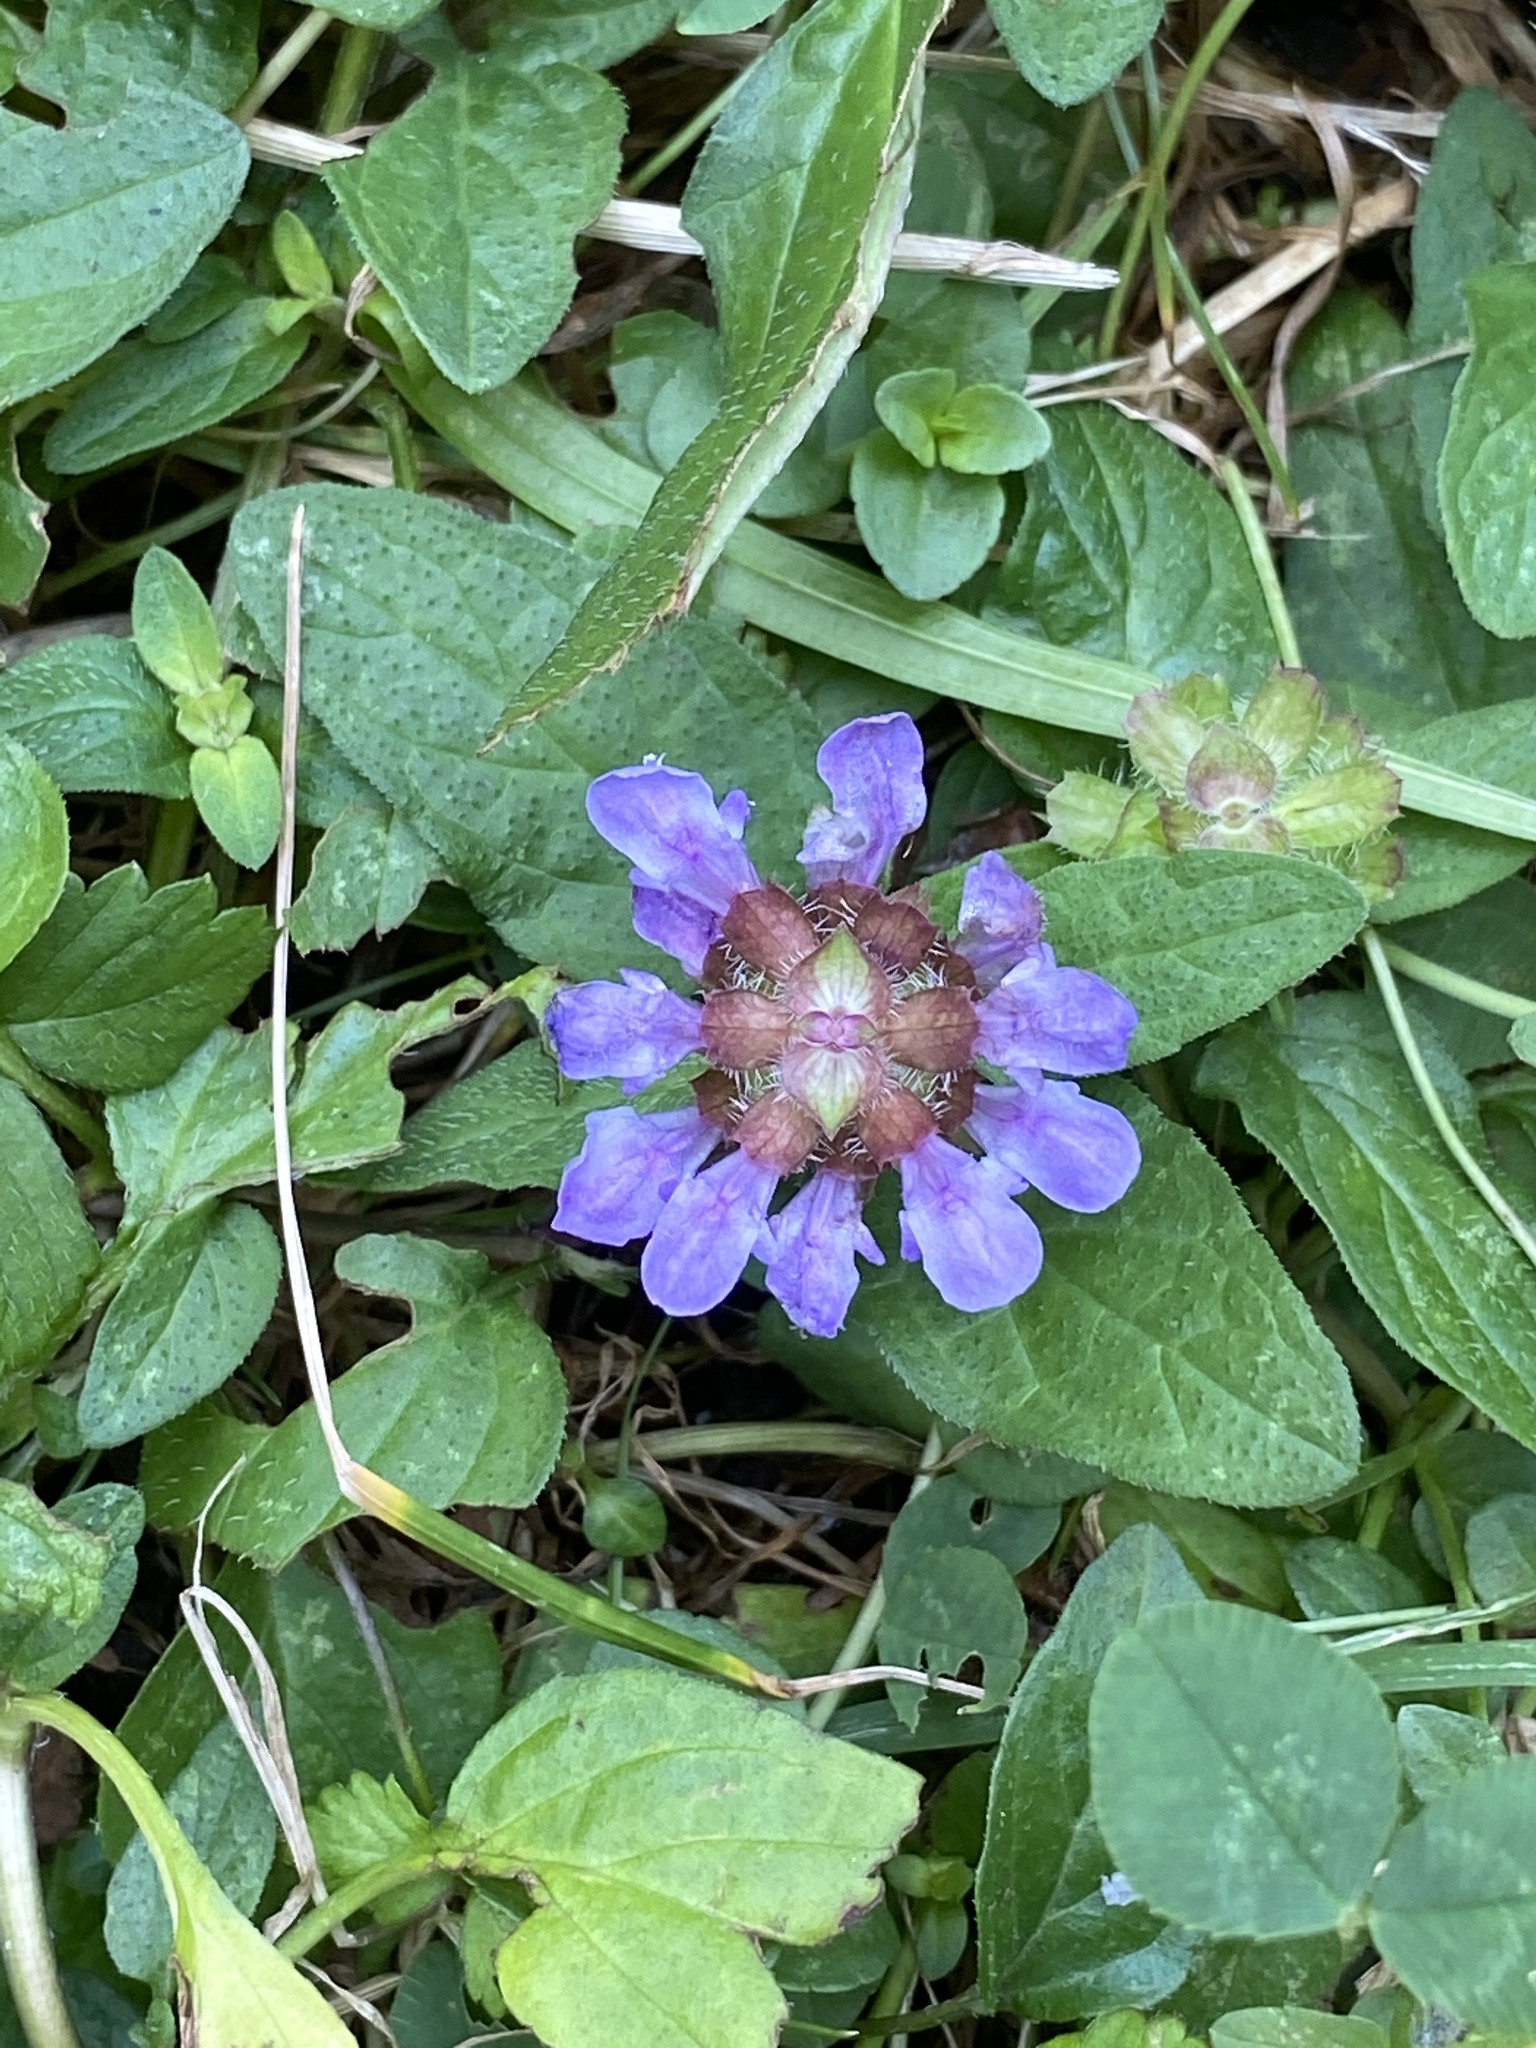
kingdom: Plantae
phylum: Tracheophyta
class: Magnoliopsida
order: Lamiales
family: Lamiaceae
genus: Prunella
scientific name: Prunella vulgaris
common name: Heal-all
